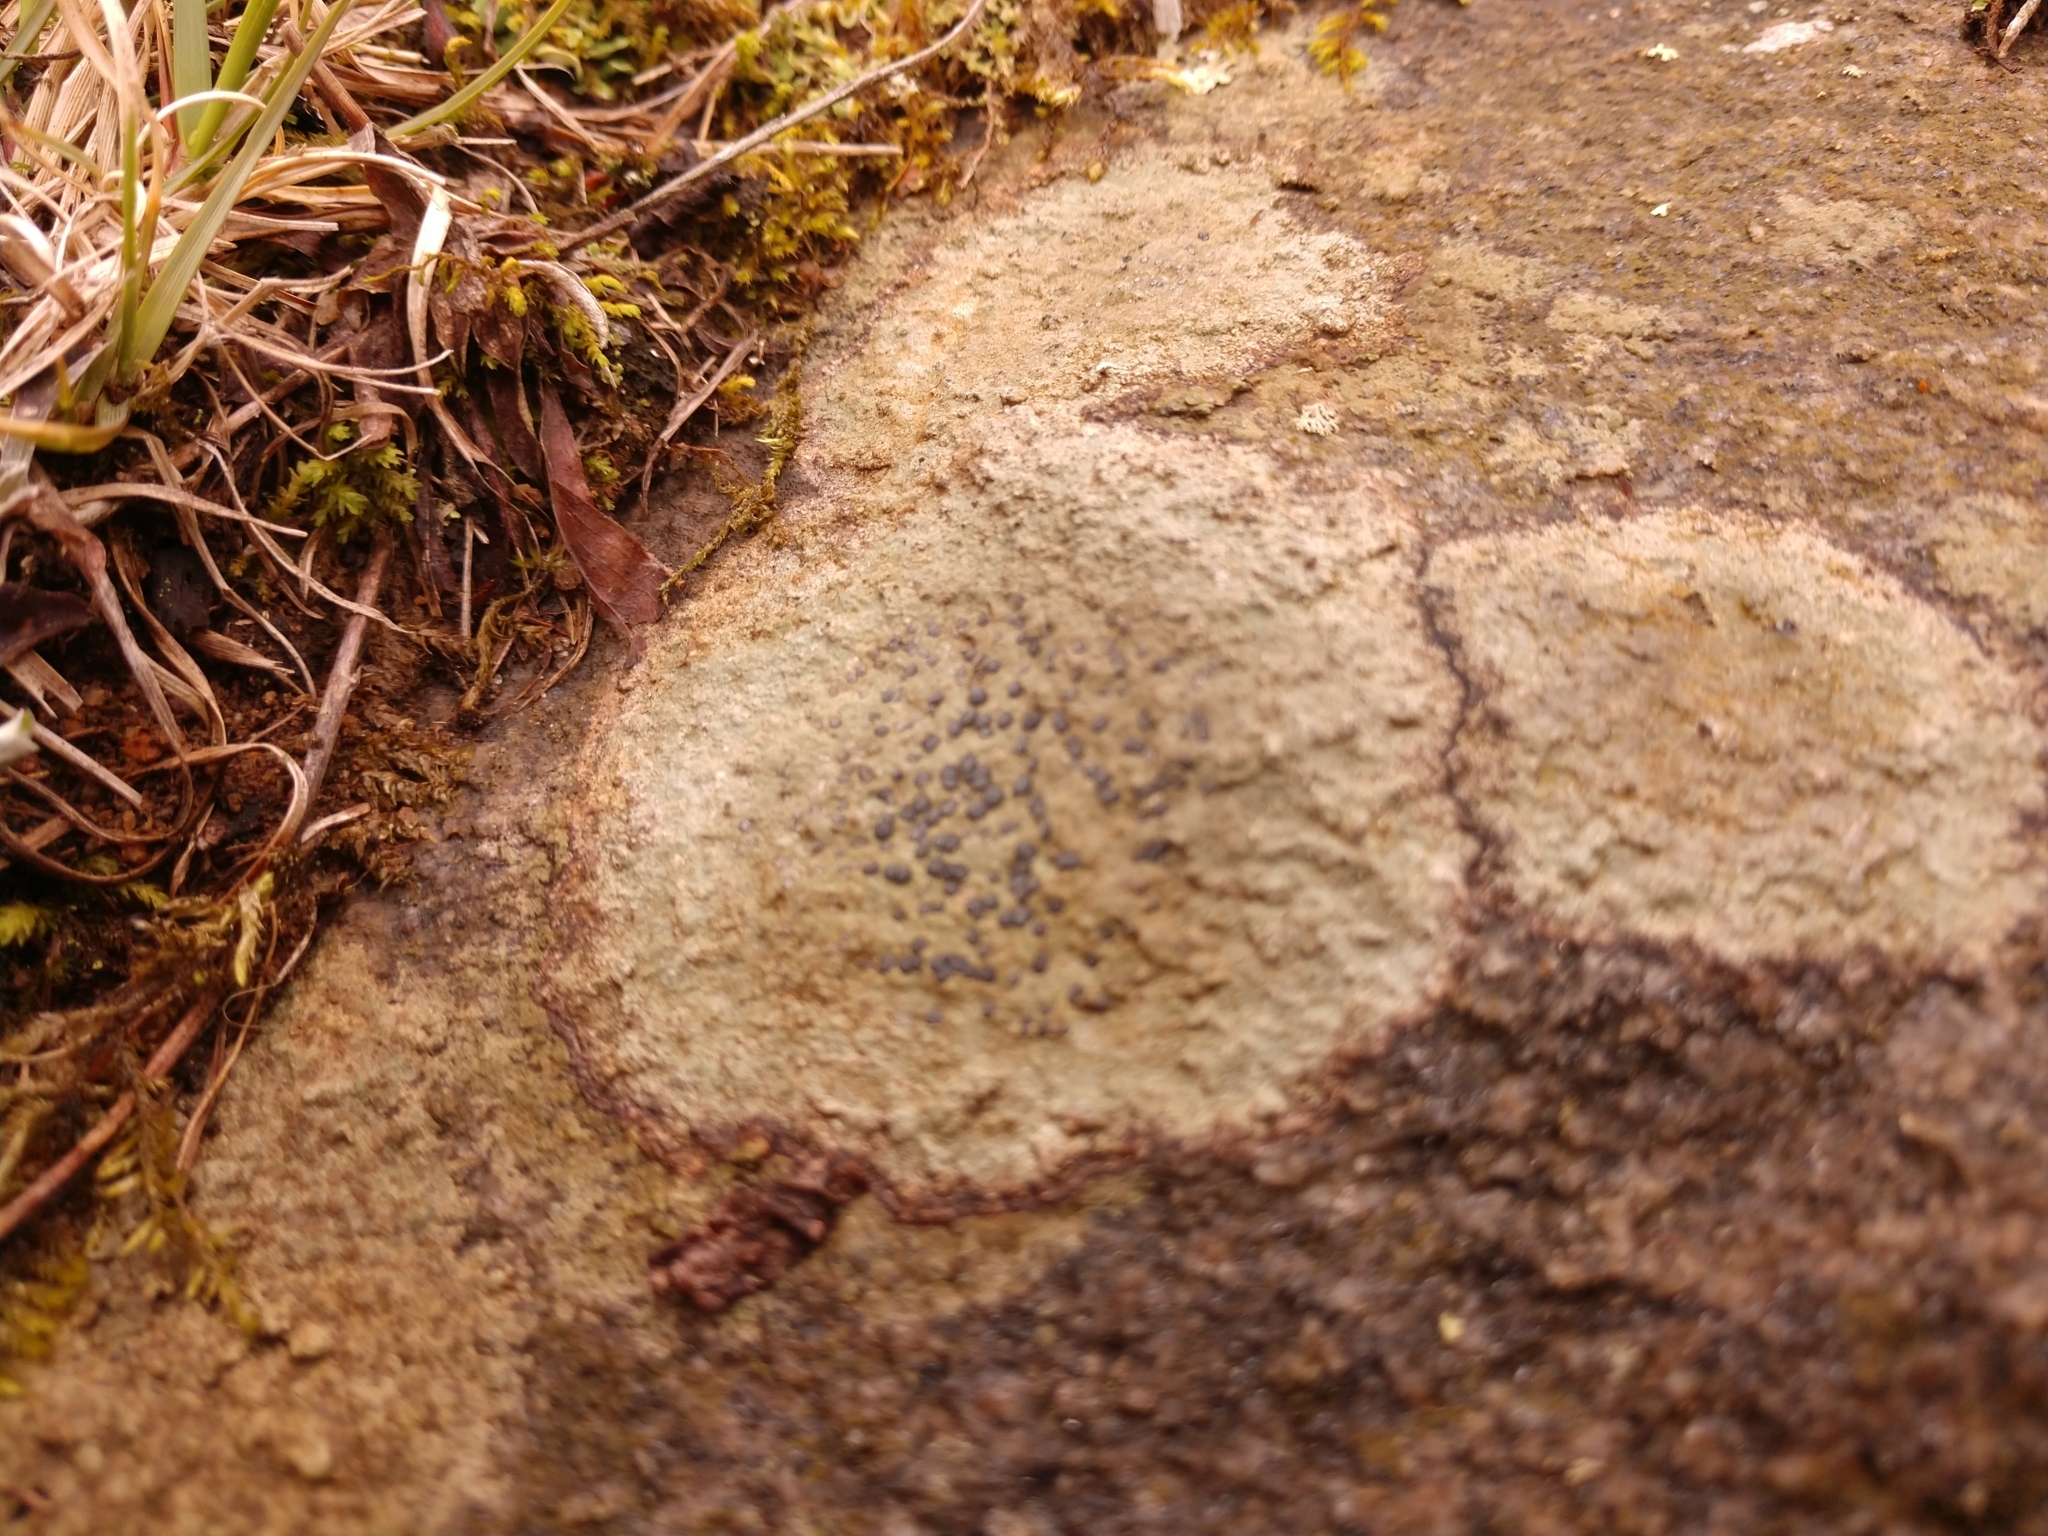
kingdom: Fungi
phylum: Ascomycota
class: Lecanoromycetes
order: Lecideales
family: Lecideaceae
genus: Porpidia
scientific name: Porpidia albocaerulescens
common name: Smokey-eyed boulder lichen
